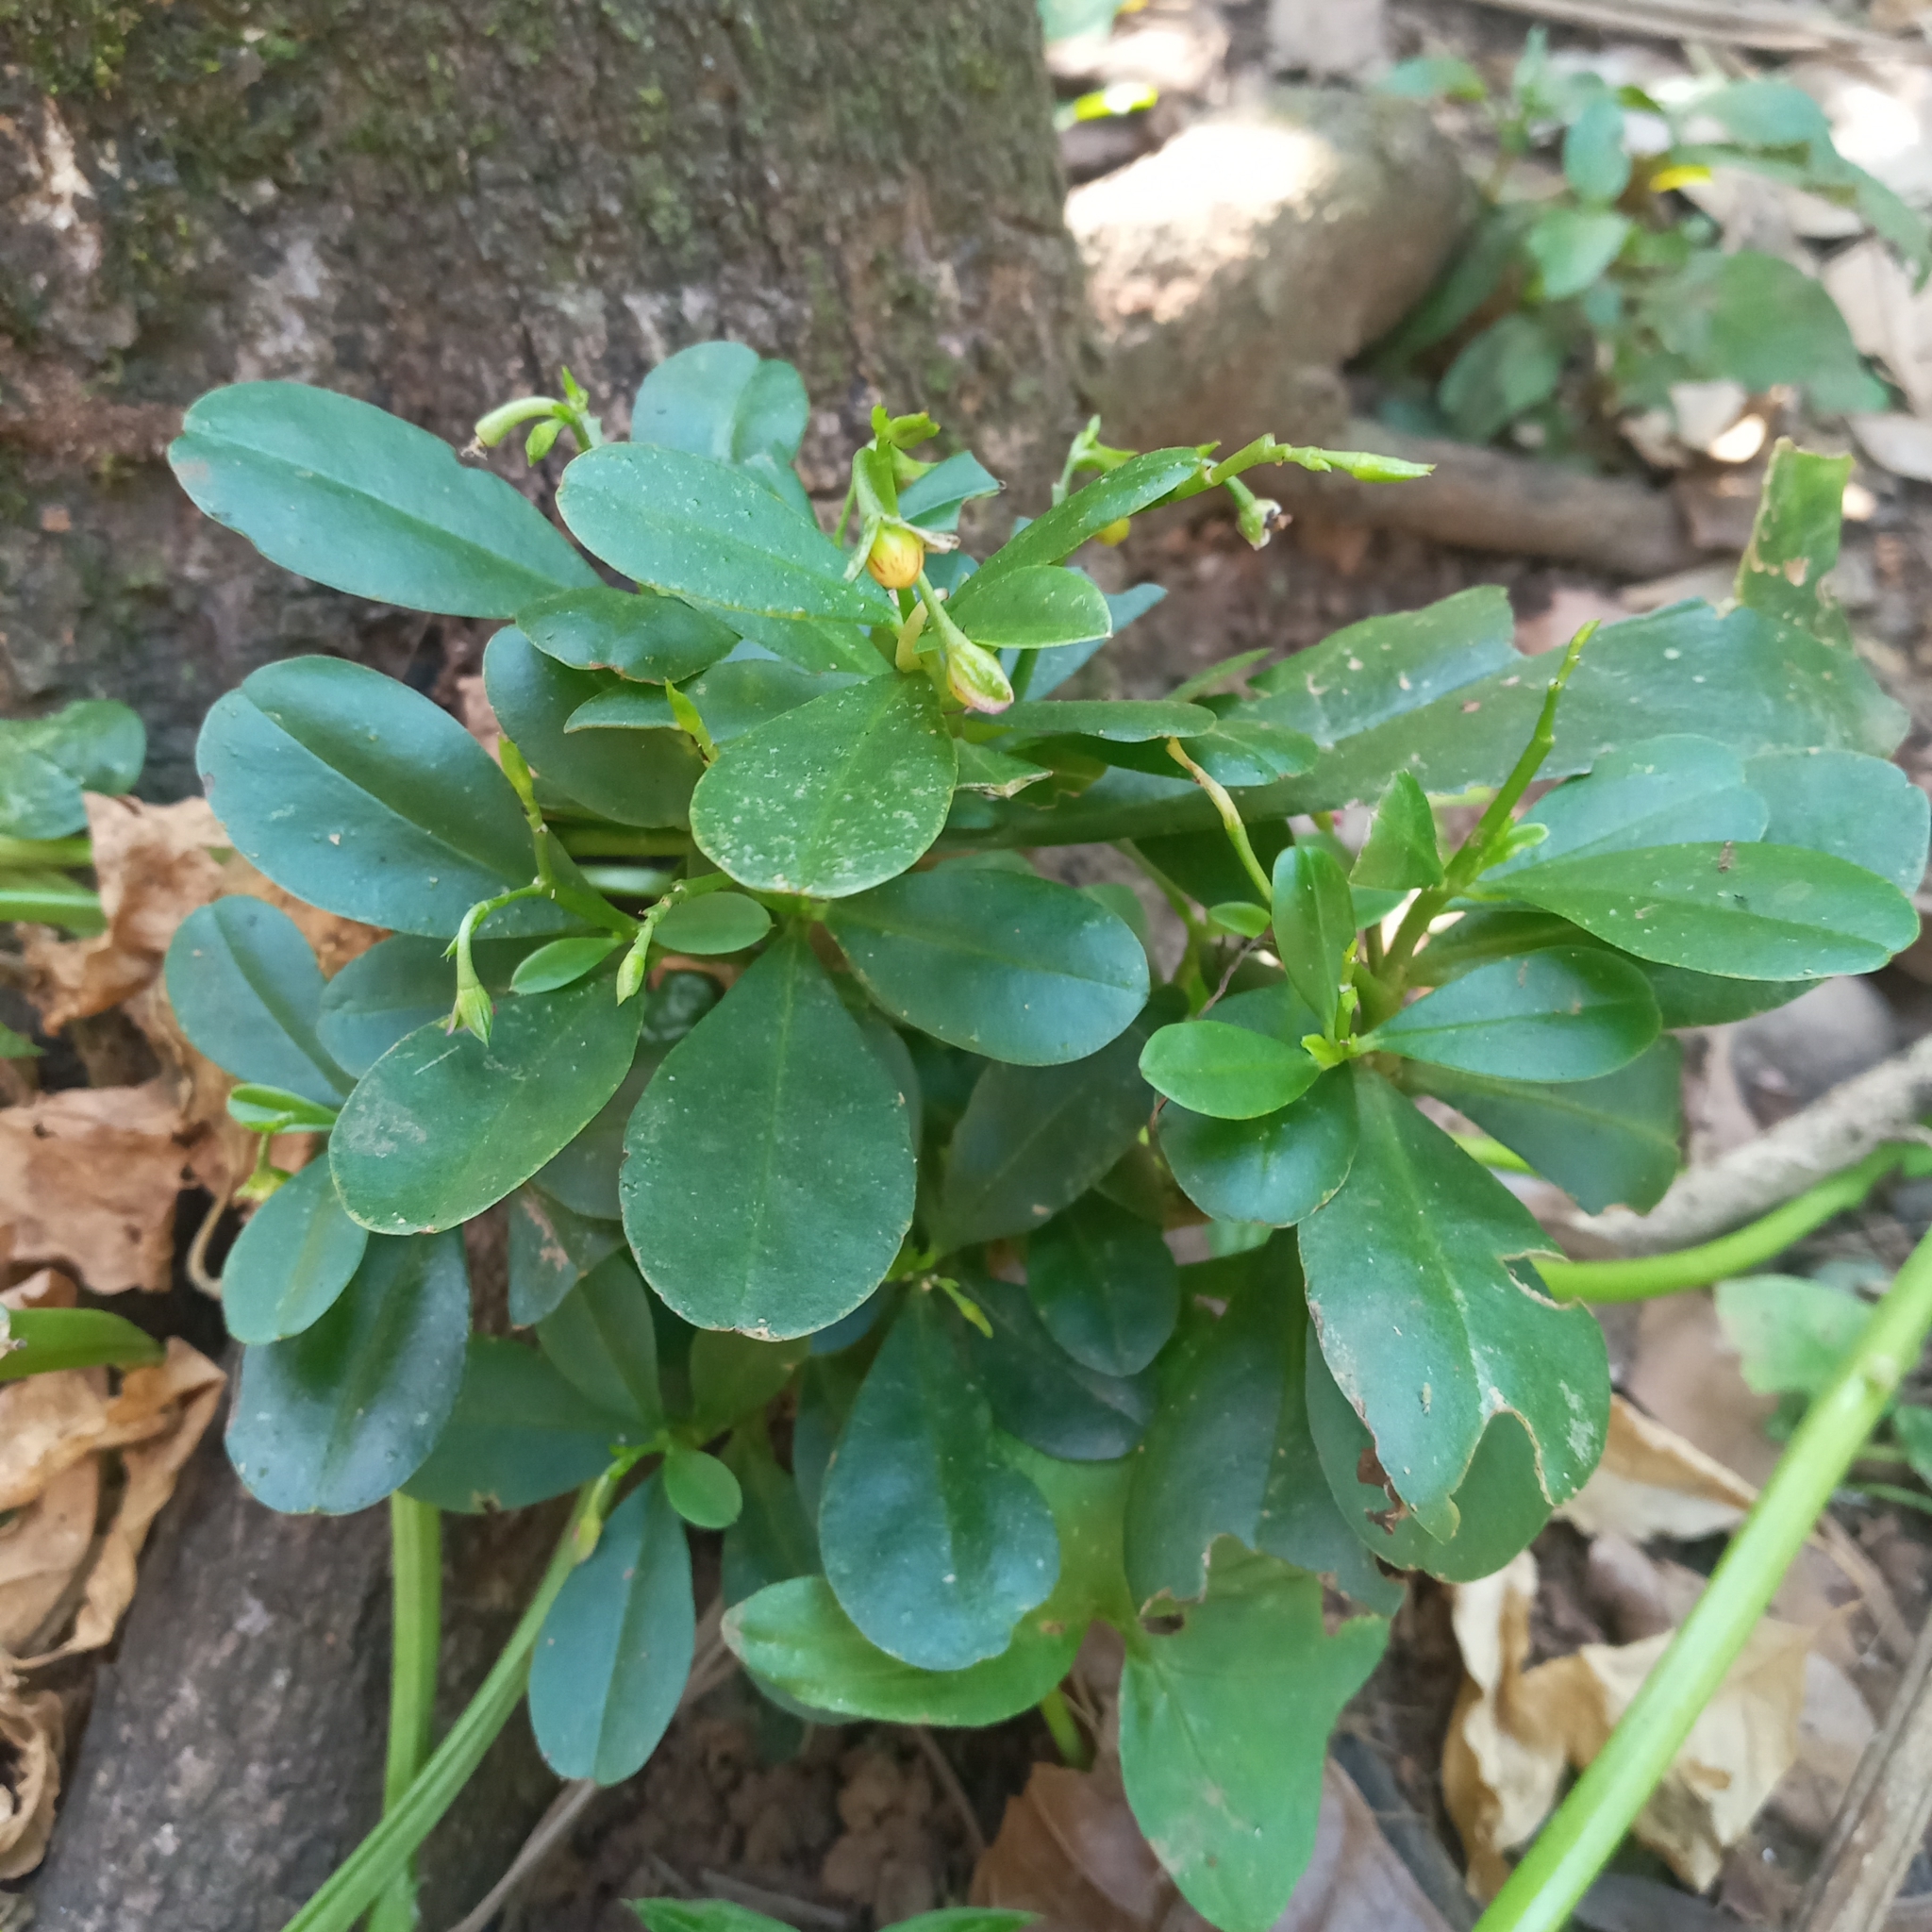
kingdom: Plantae
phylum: Tracheophyta
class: Magnoliopsida
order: Caryophyllales
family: Talinaceae
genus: Talinum
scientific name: Talinum fruticosum
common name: Verdolaga-francesa
